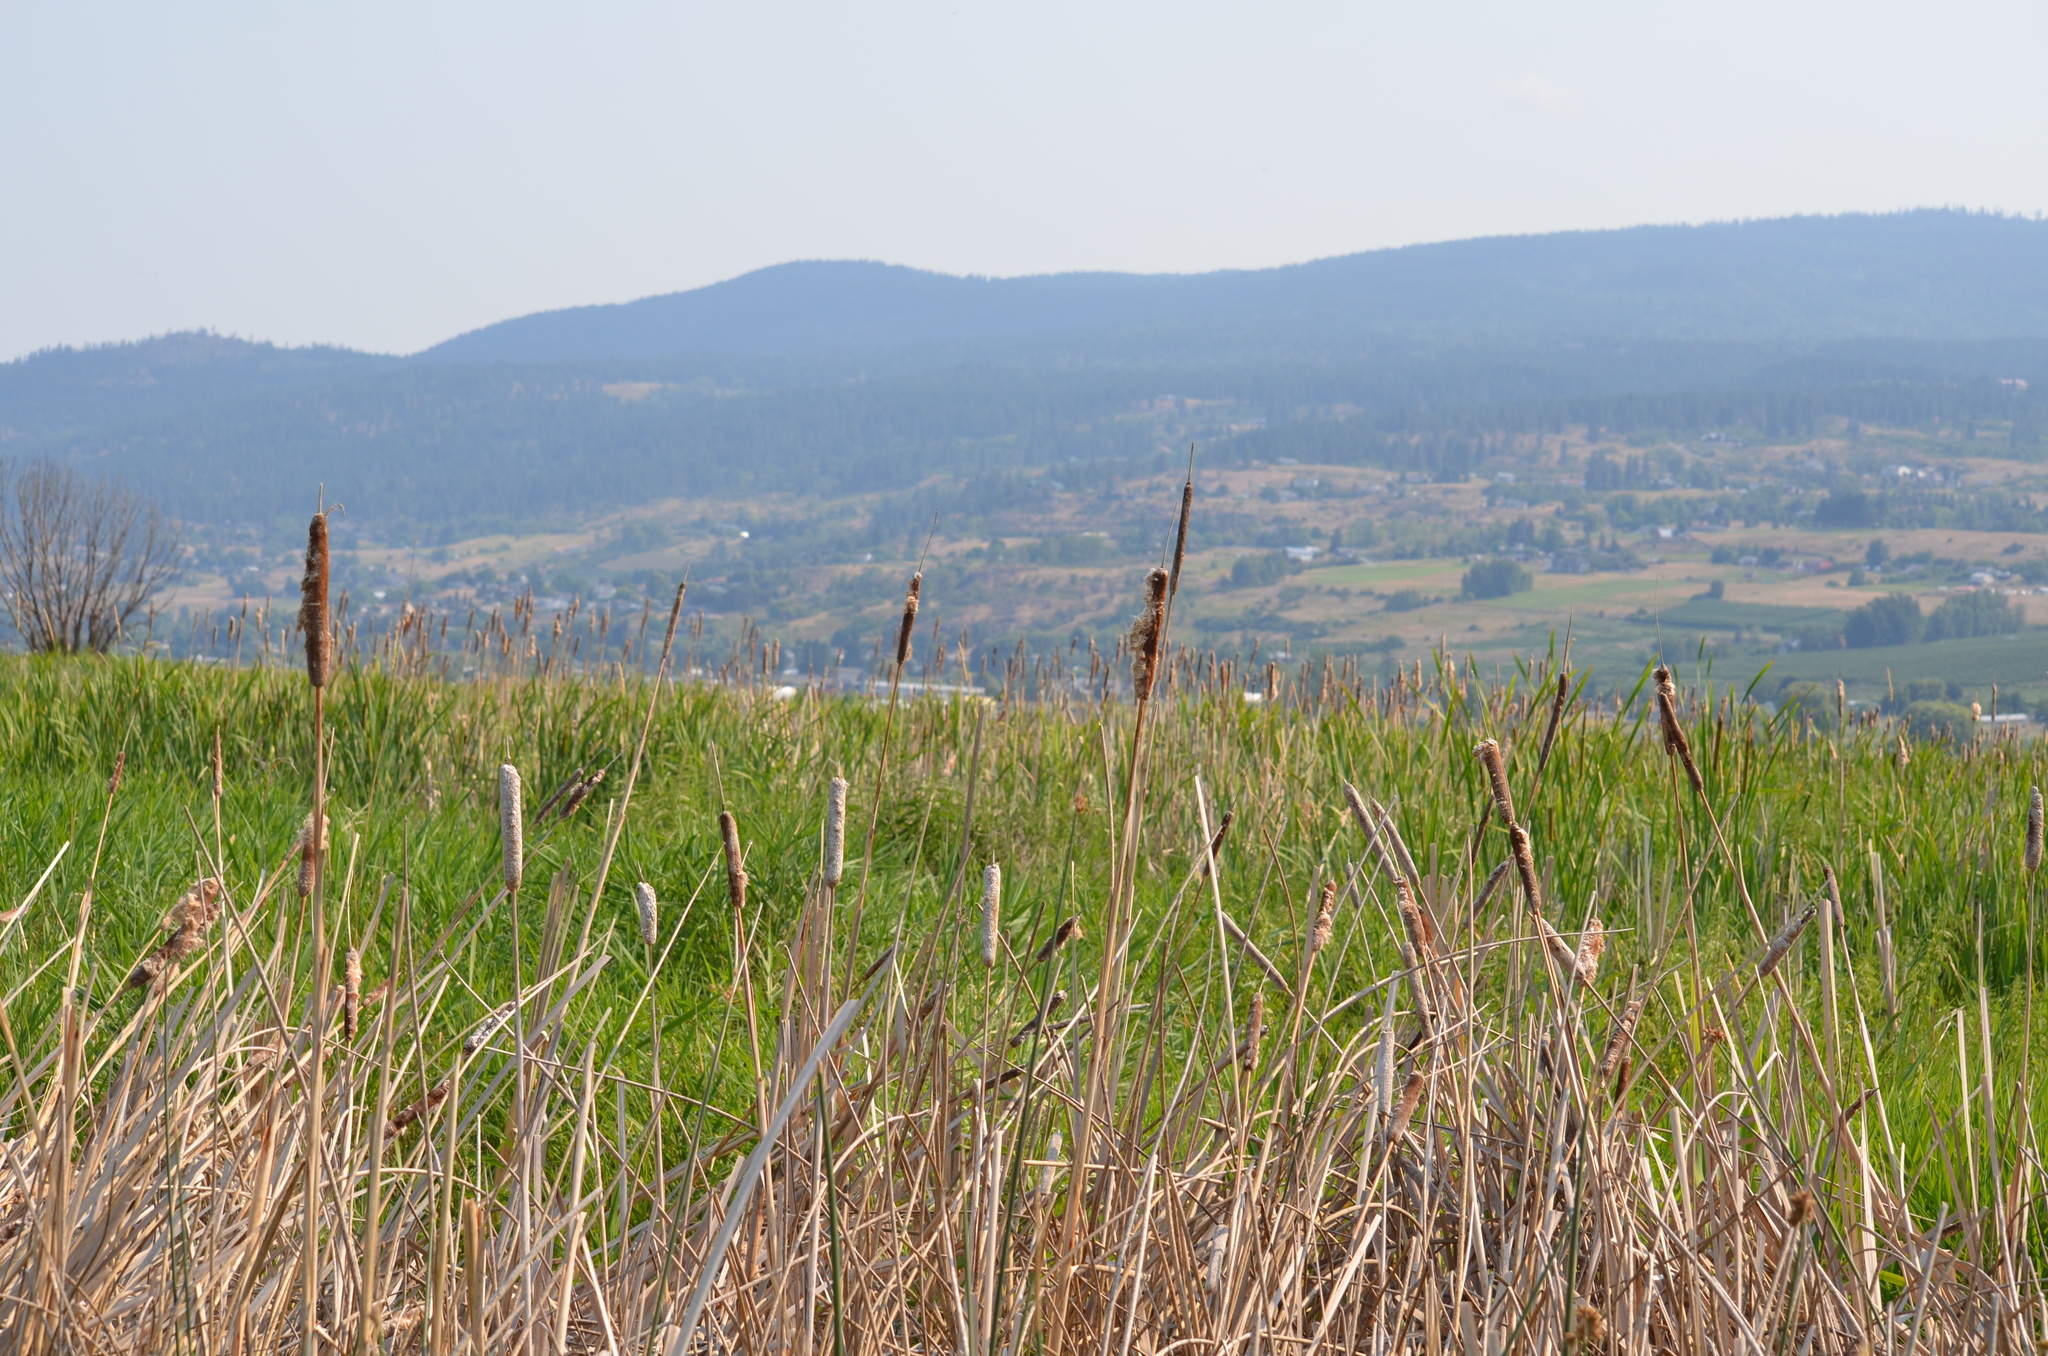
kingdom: Plantae
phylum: Tracheophyta
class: Liliopsida
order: Poales
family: Typhaceae
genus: Typha
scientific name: Typha latifolia
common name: Broadleaf cattail
